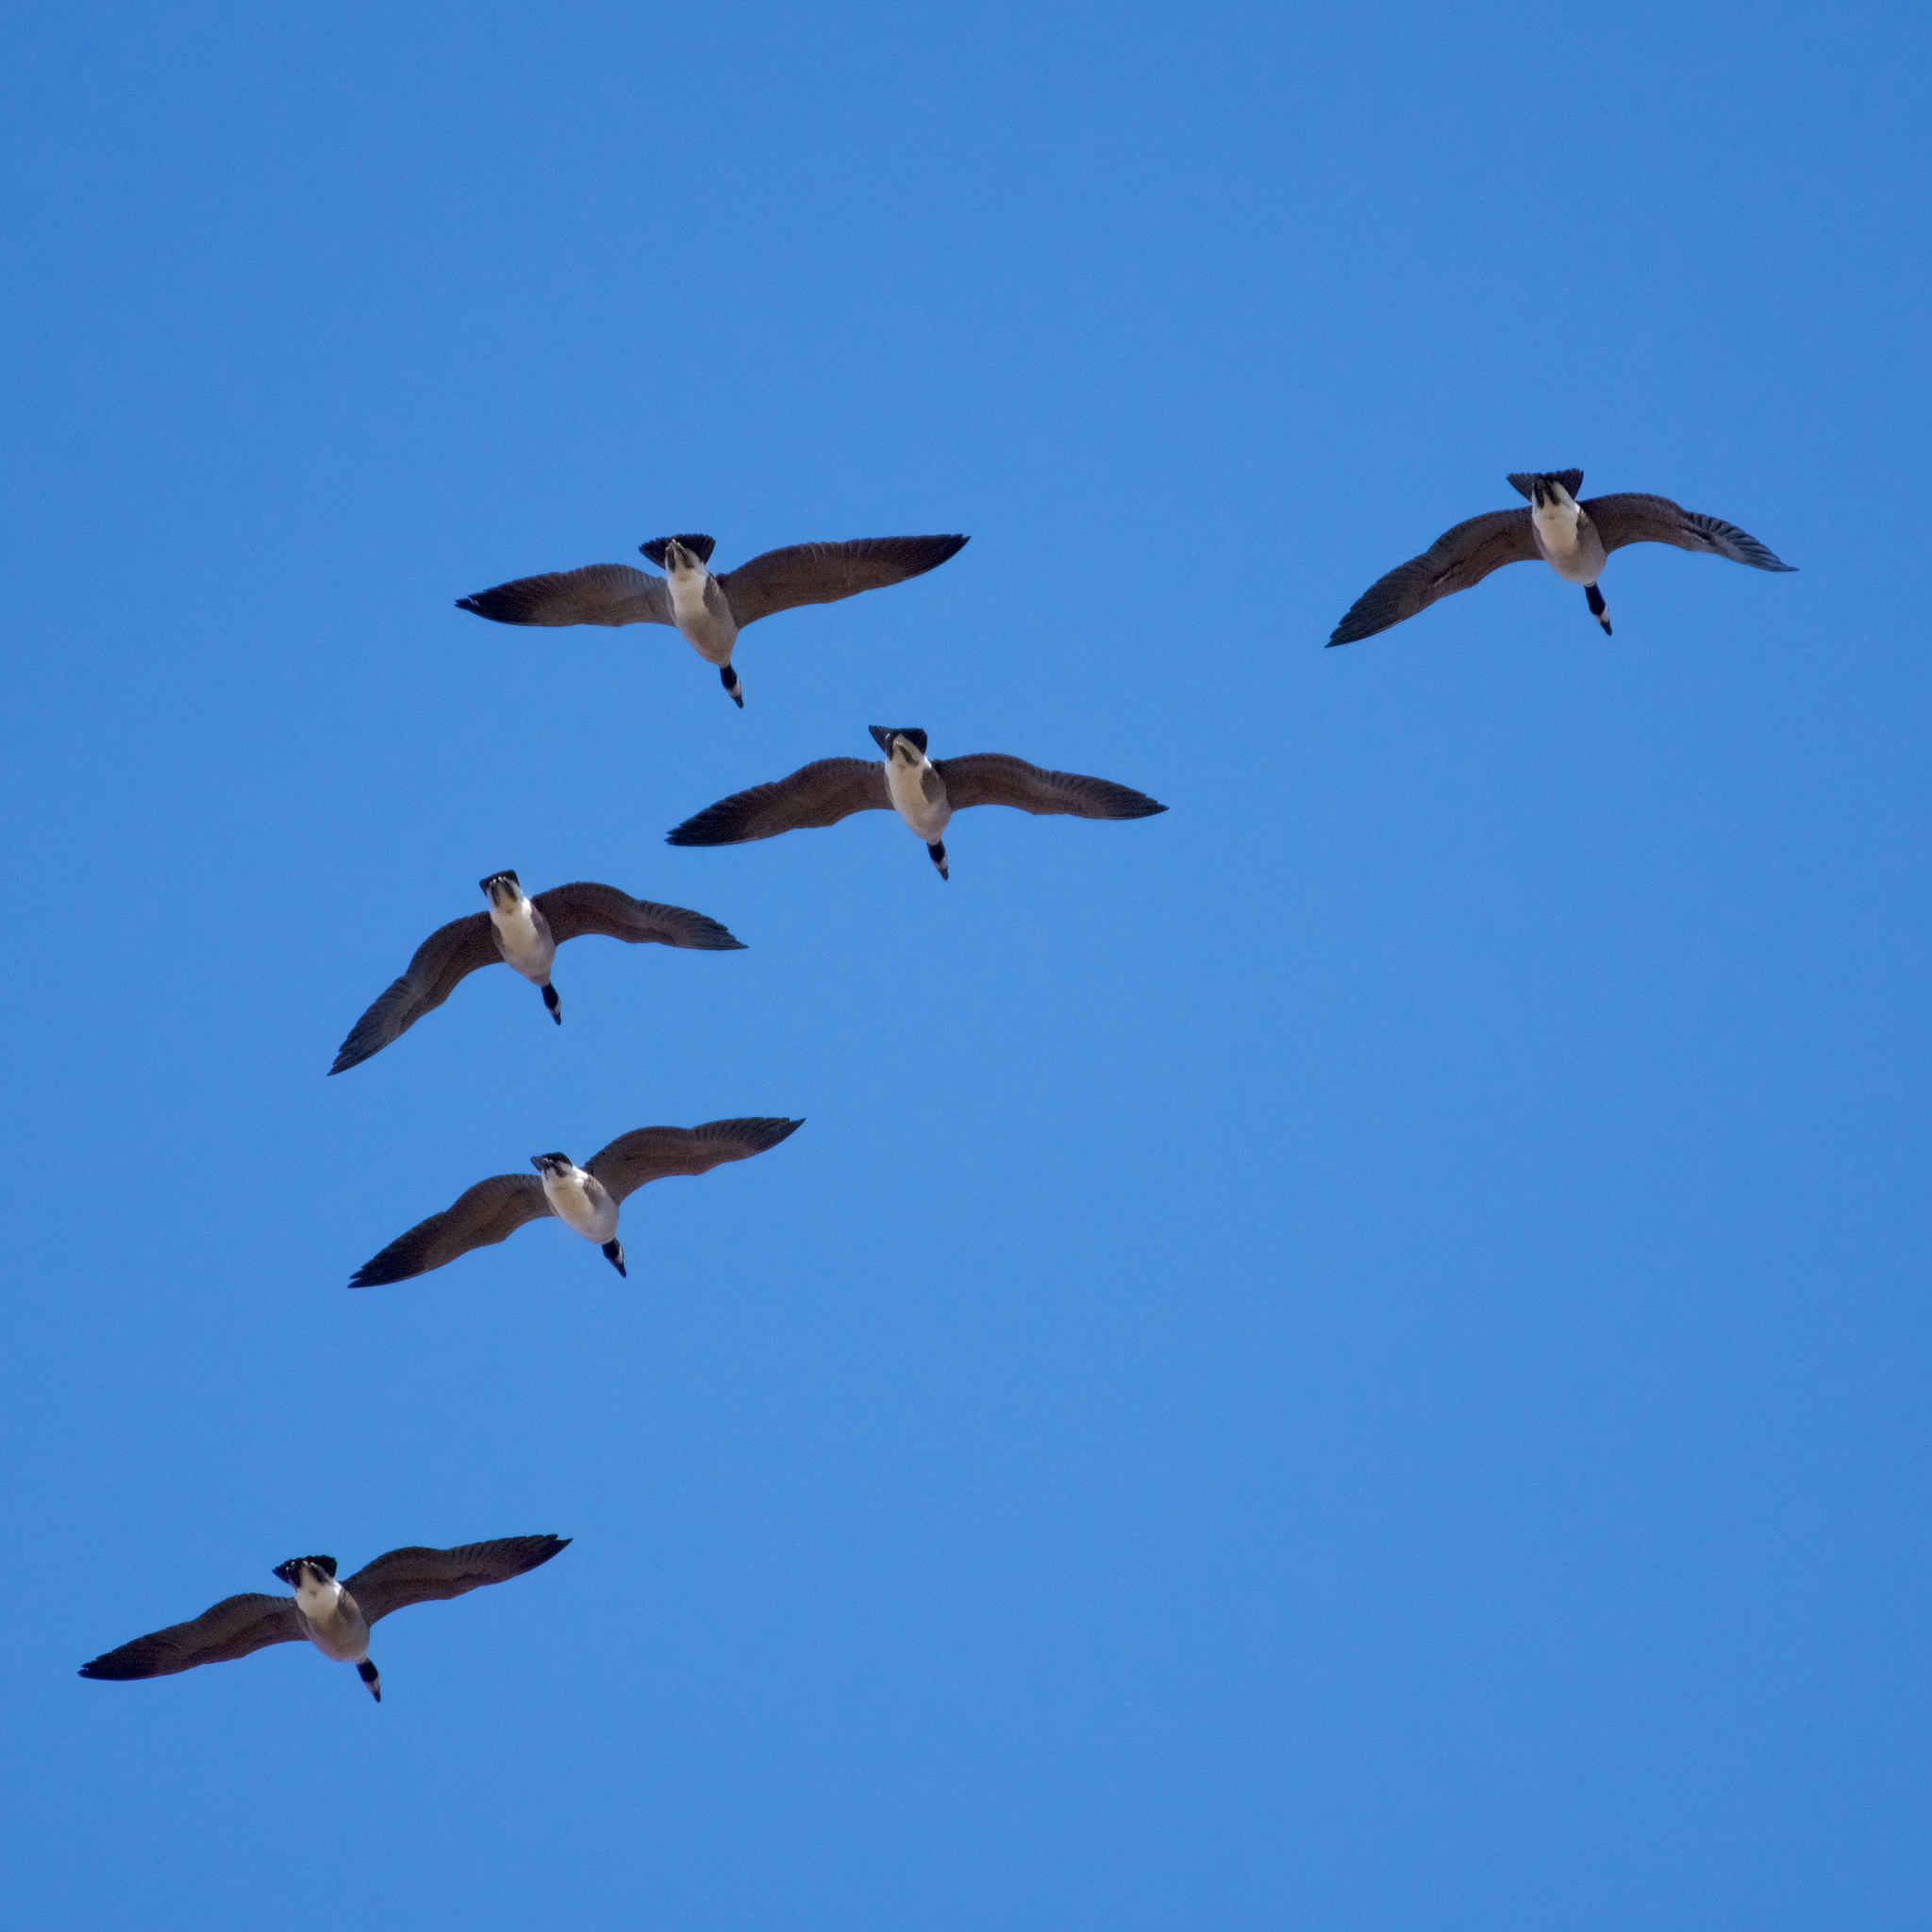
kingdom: Animalia
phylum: Chordata
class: Aves
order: Anseriformes
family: Anatidae
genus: Branta
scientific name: Branta canadensis
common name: Canada goose
